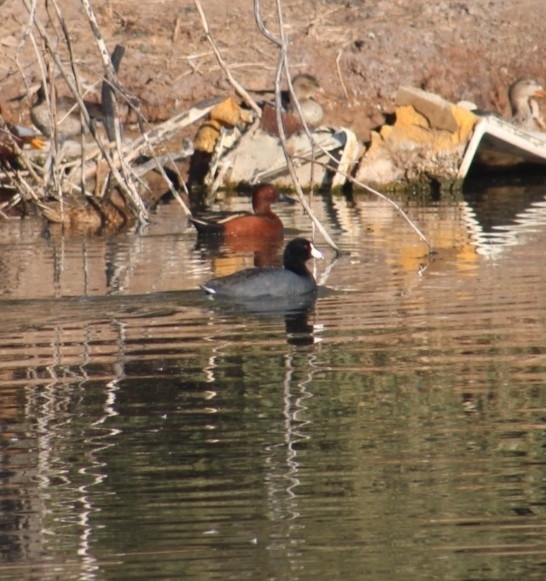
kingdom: Animalia
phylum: Chordata
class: Aves
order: Gruiformes
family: Rallidae
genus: Fulica
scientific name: Fulica americana
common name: American coot
